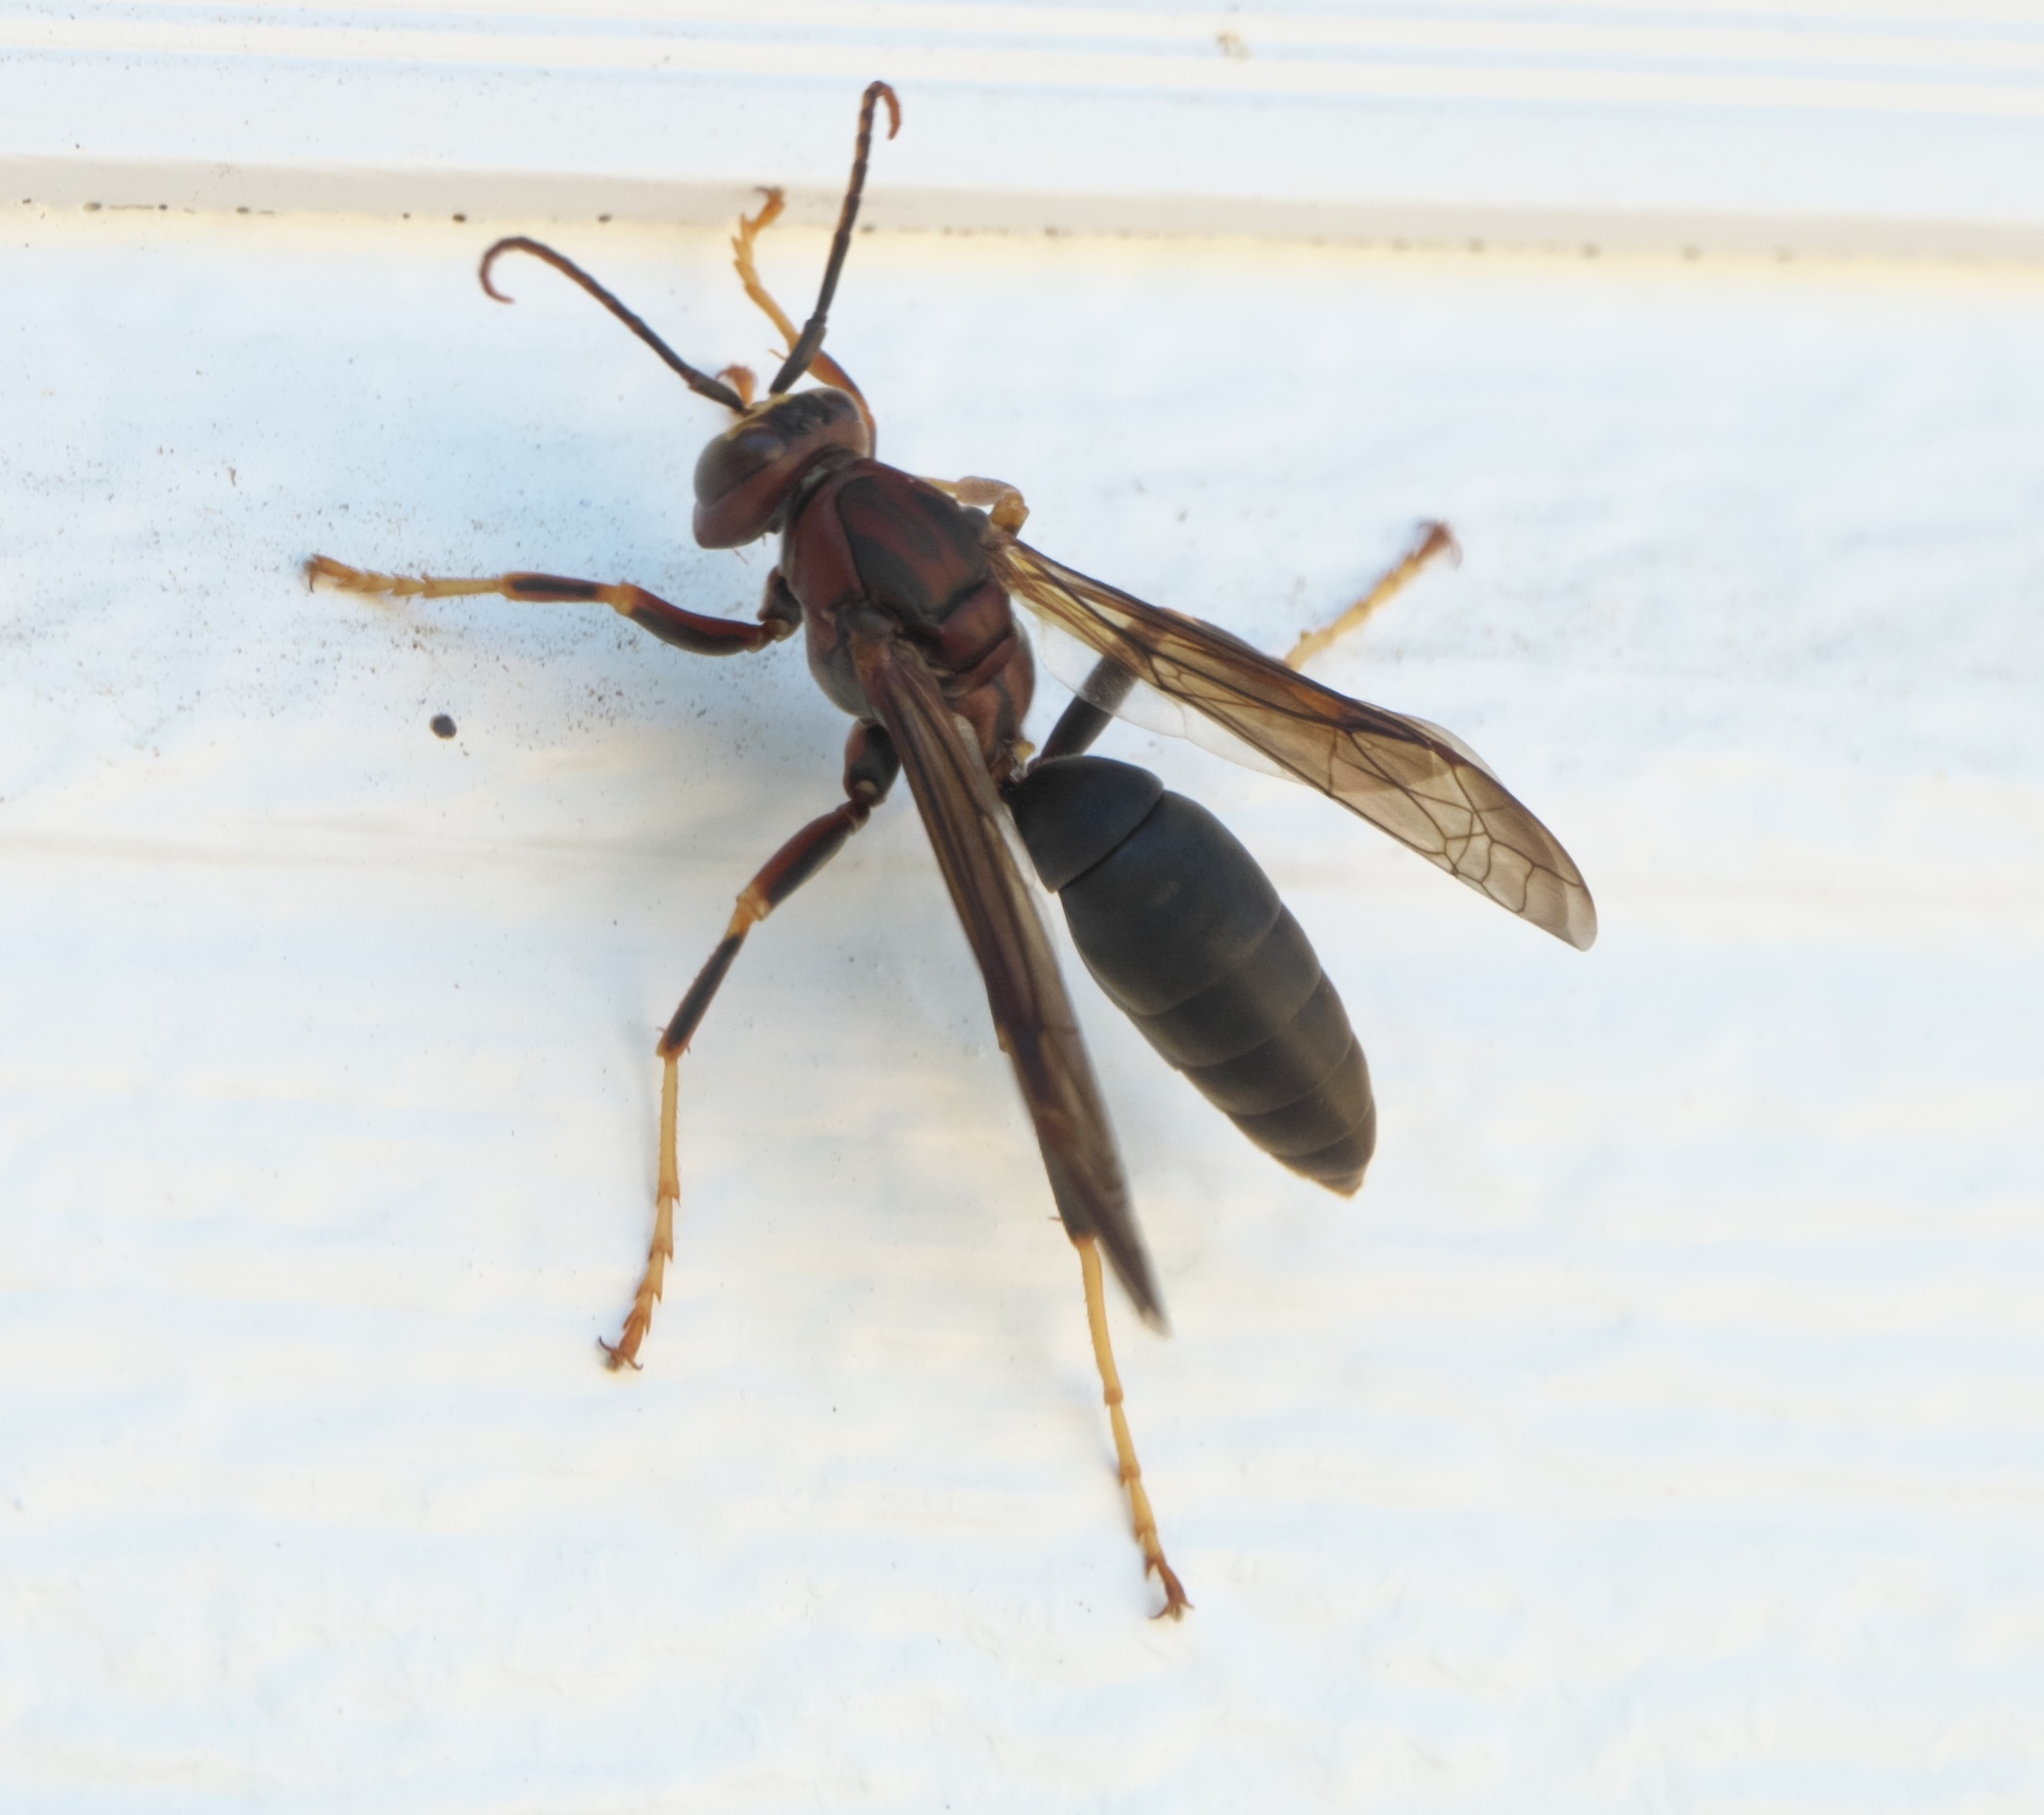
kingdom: Animalia
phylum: Arthropoda
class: Insecta
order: Hymenoptera
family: Eumenidae
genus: Polistes
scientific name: Polistes metricus
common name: Metric paper wasp
